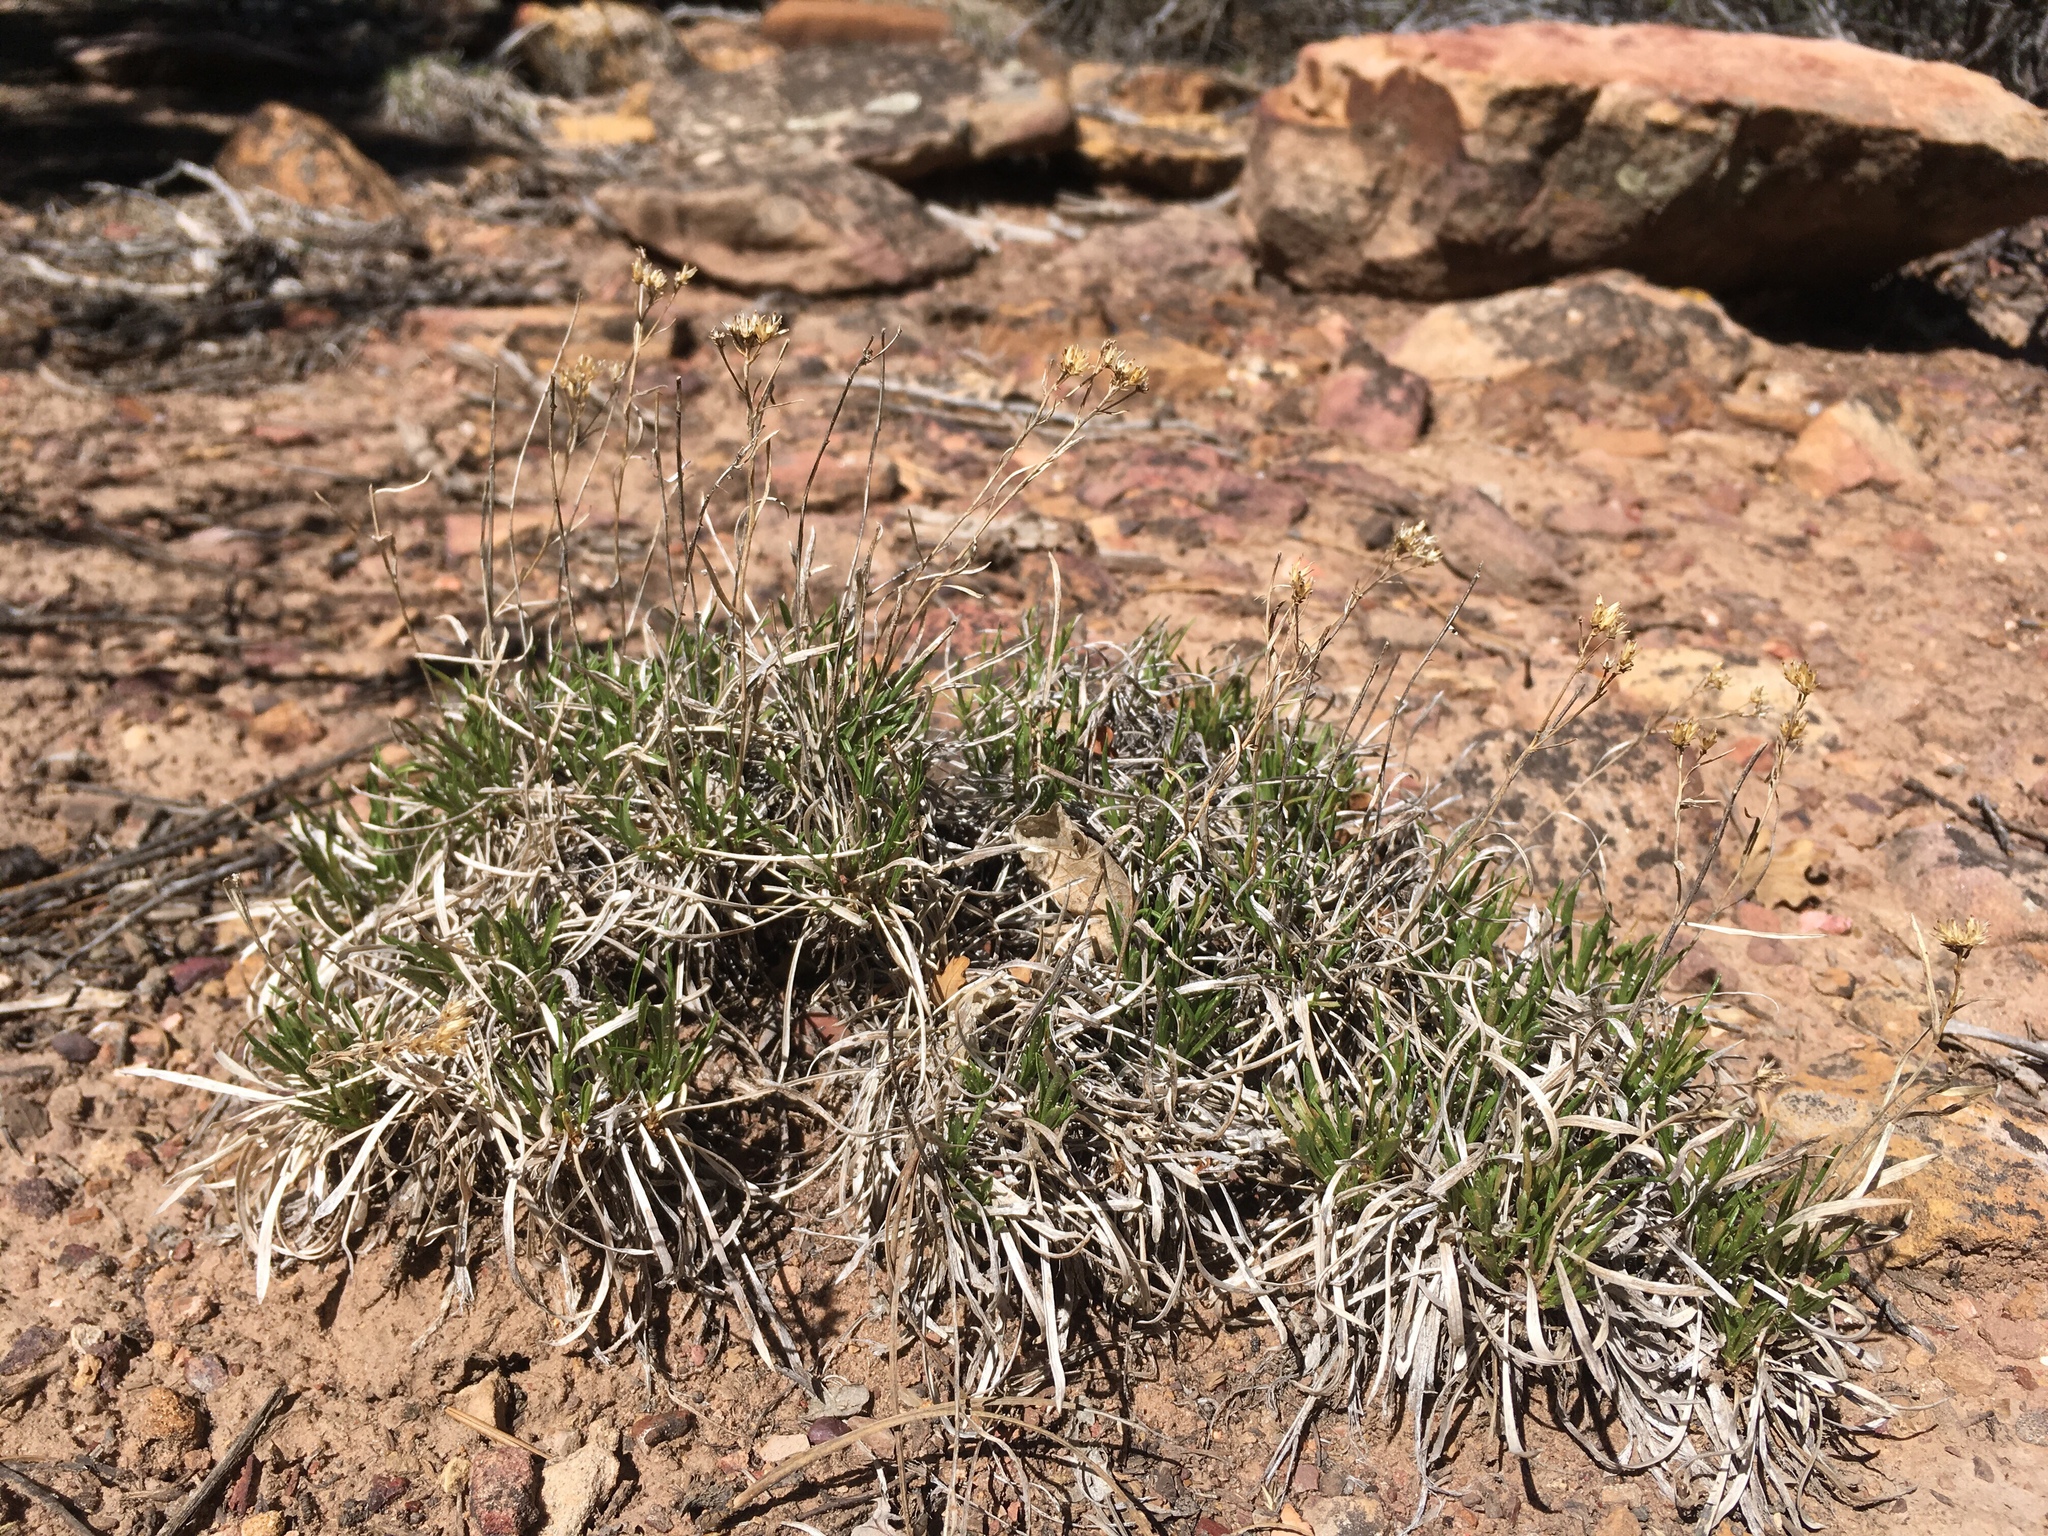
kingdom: Plantae
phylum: Tracheophyta
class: Magnoliopsida
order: Asterales
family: Asteraceae
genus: Petradoria
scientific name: Petradoria pumila
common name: Rock-goldenrod
